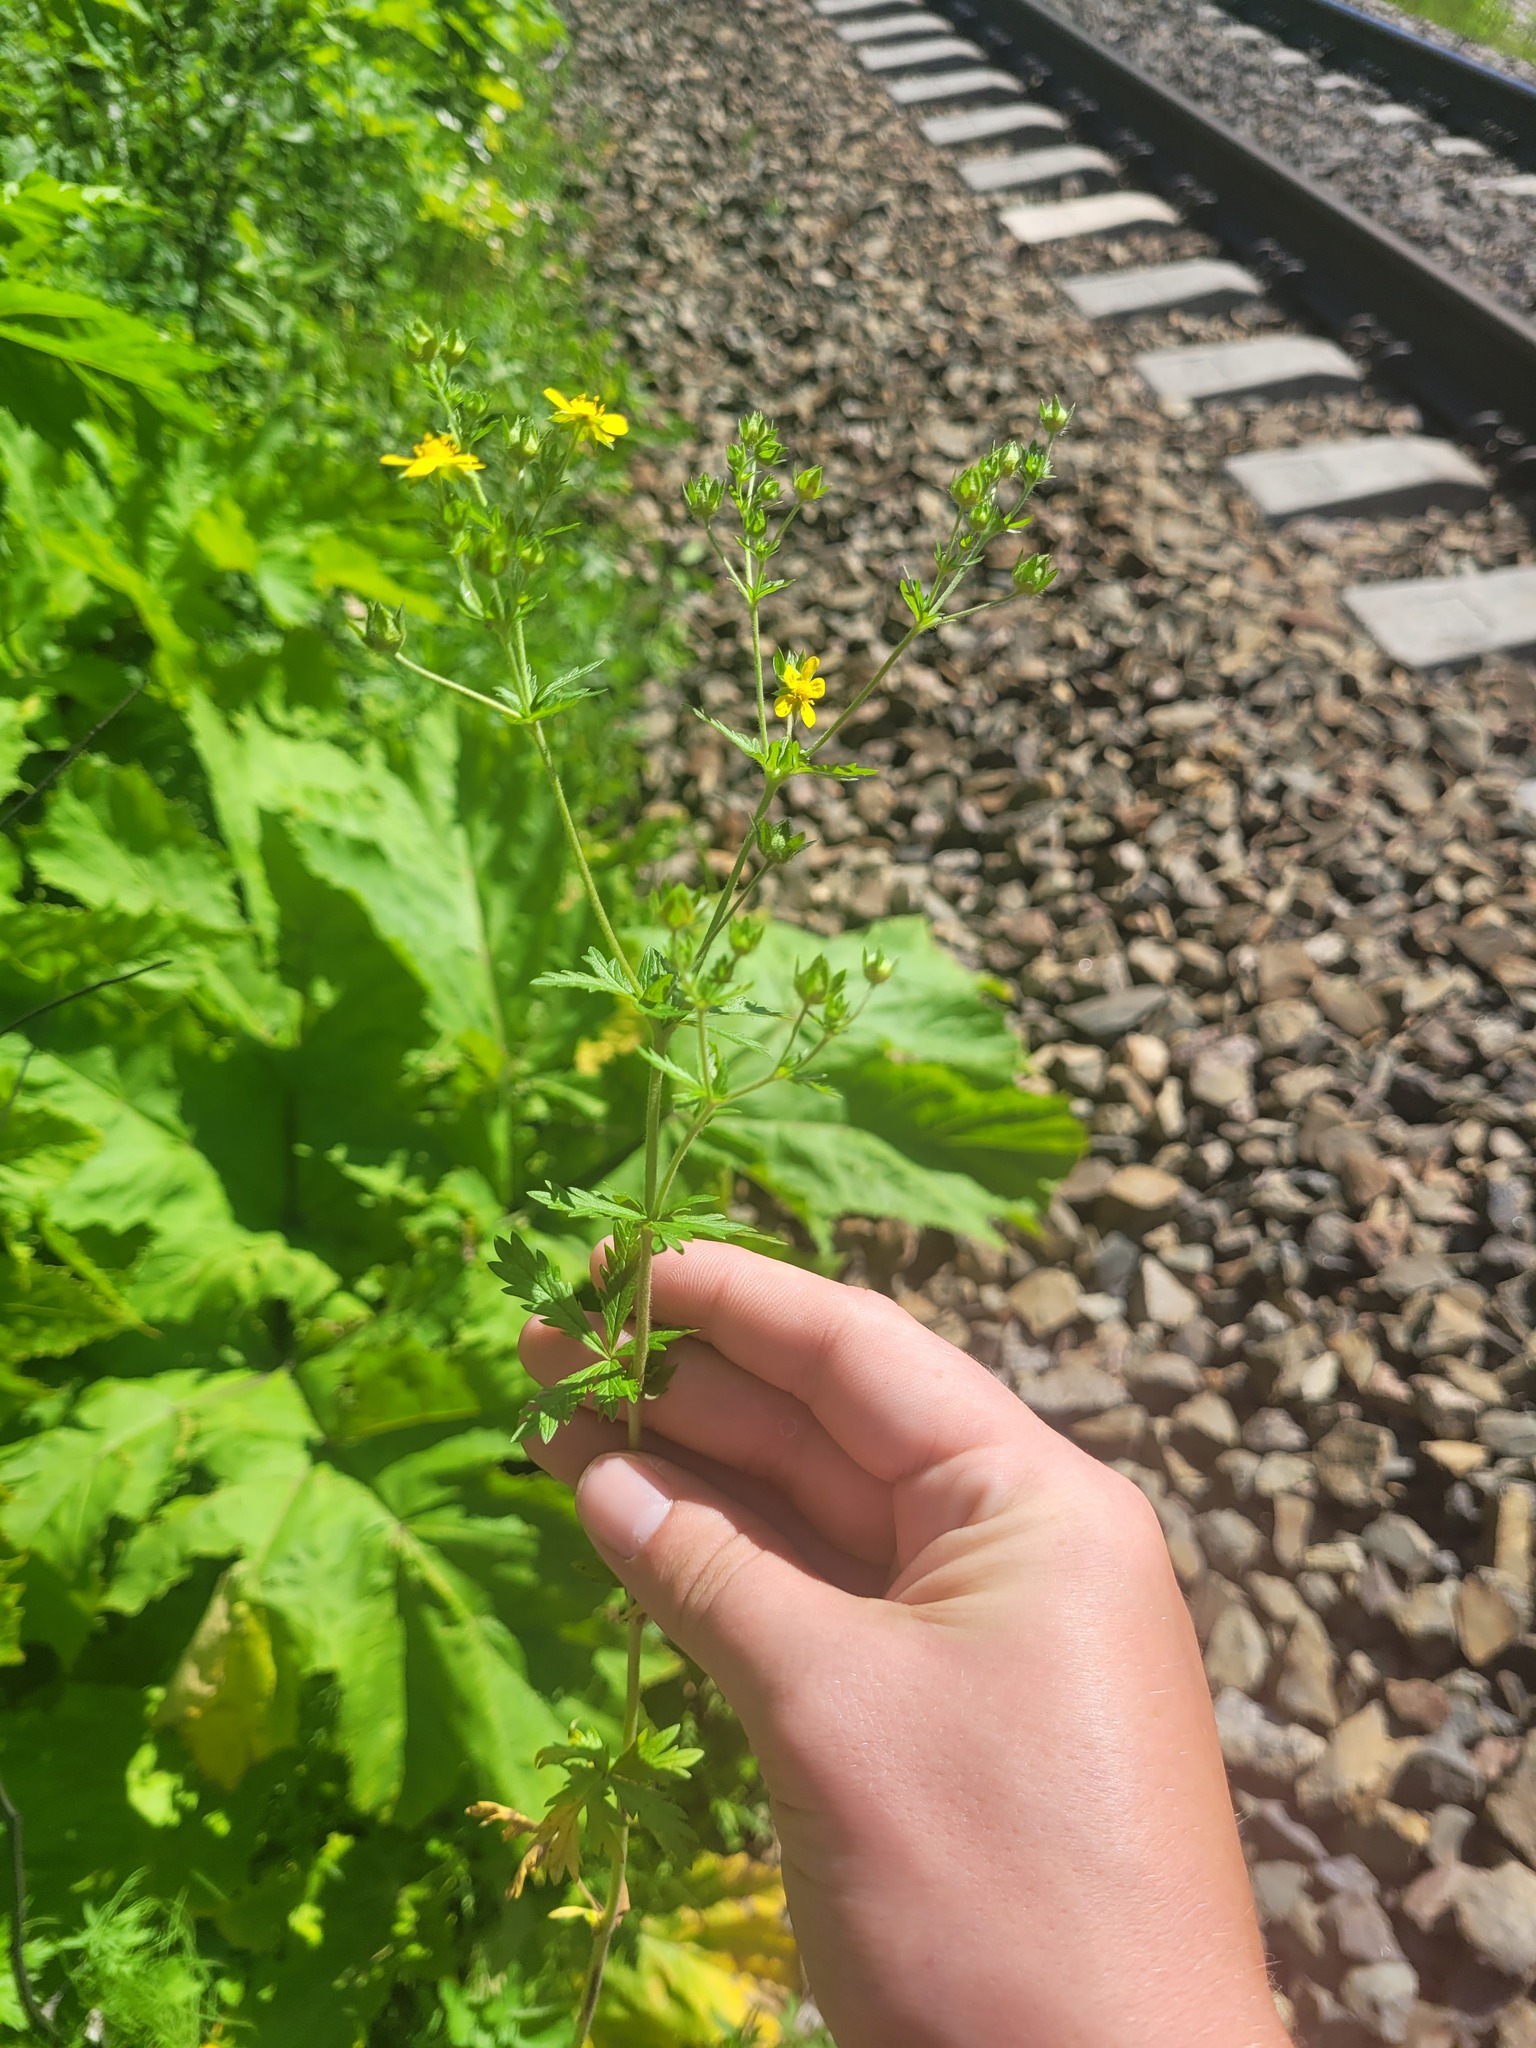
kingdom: Plantae
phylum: Tracheophyta
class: Magnoliopsida
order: Rosales
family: Rosaceae
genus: Potentilla
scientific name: Potentilla intermedia
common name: Downy cinquefoil
